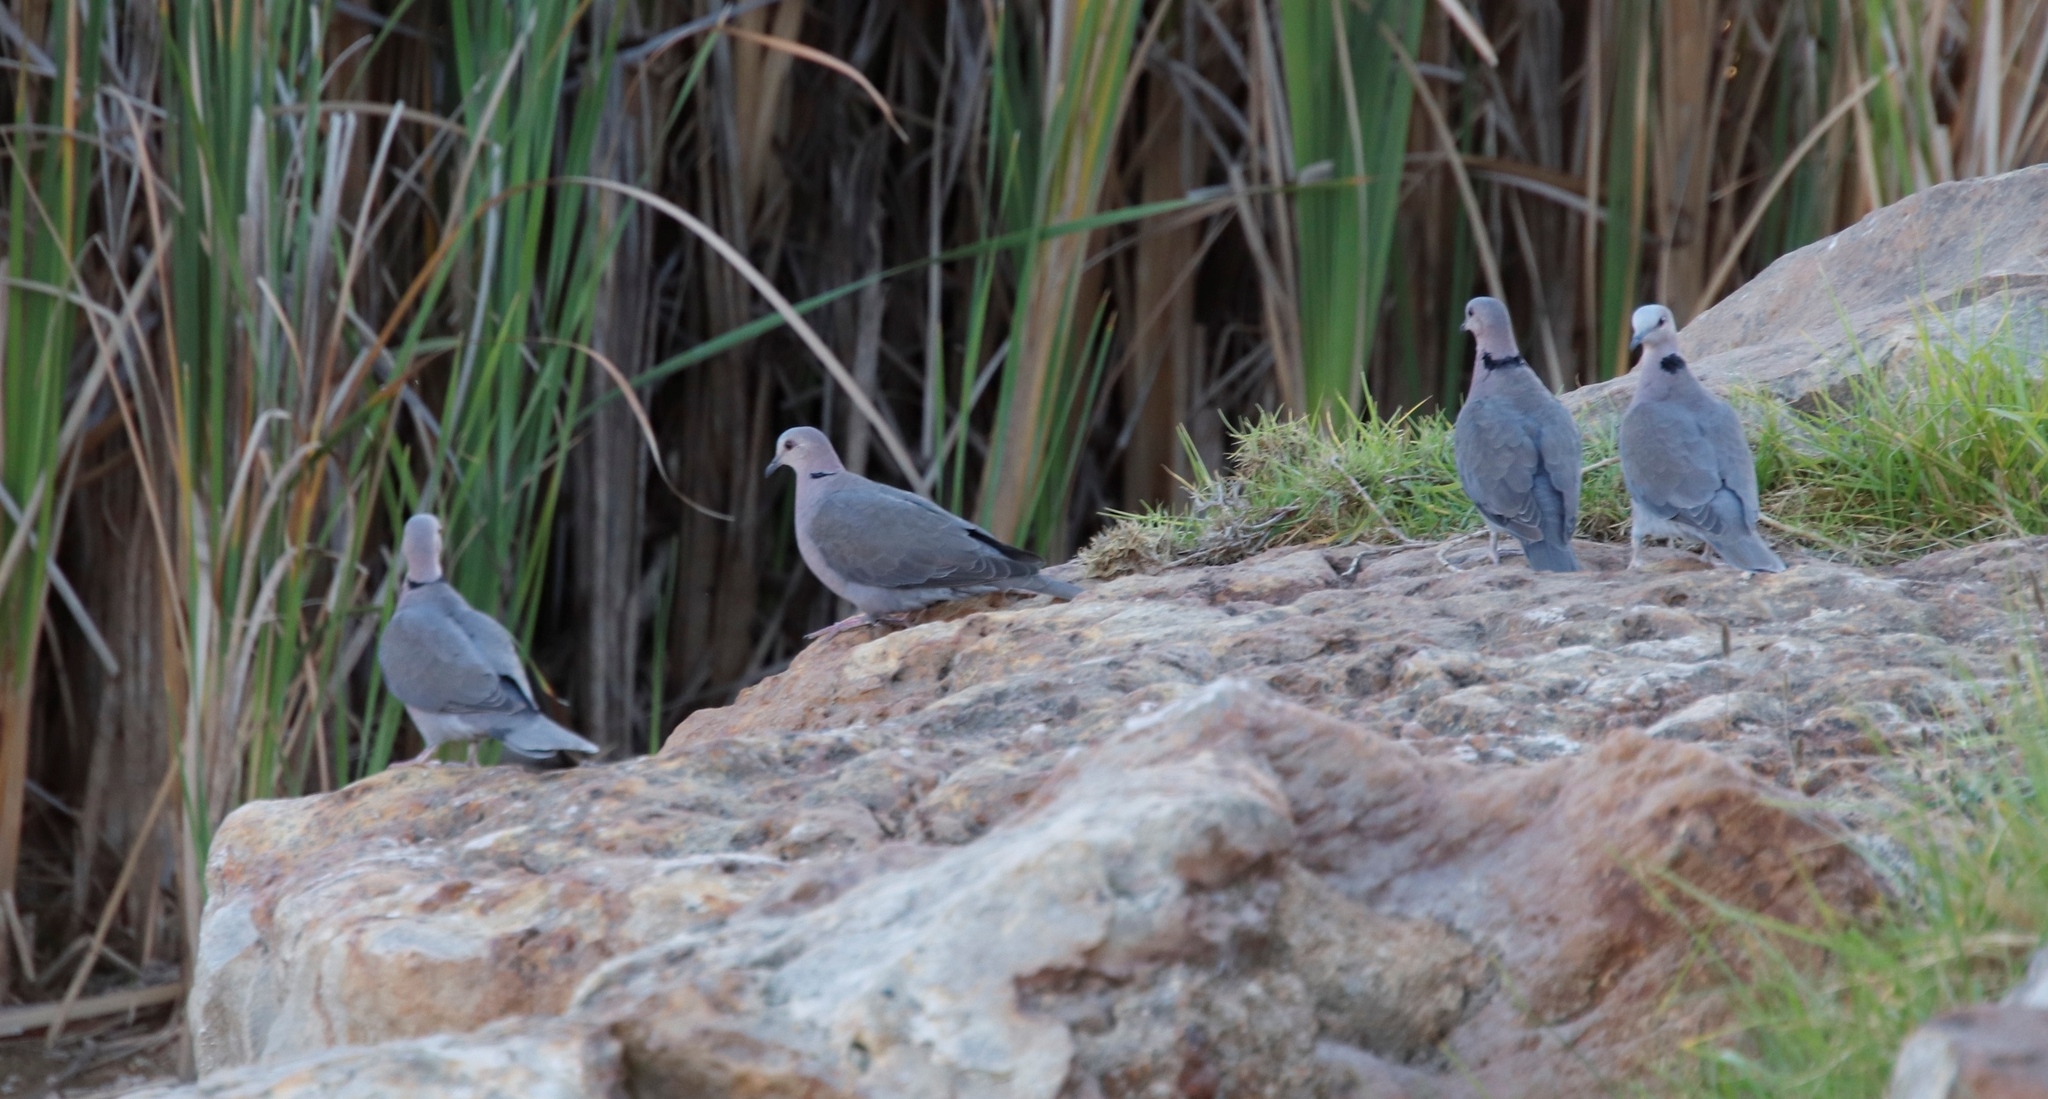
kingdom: Animalia
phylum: Chordata
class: Aves
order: Columbiformes
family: Columbidae
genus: Streptopelia
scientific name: Streptopelia semitorquata
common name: Red-eyed dove
